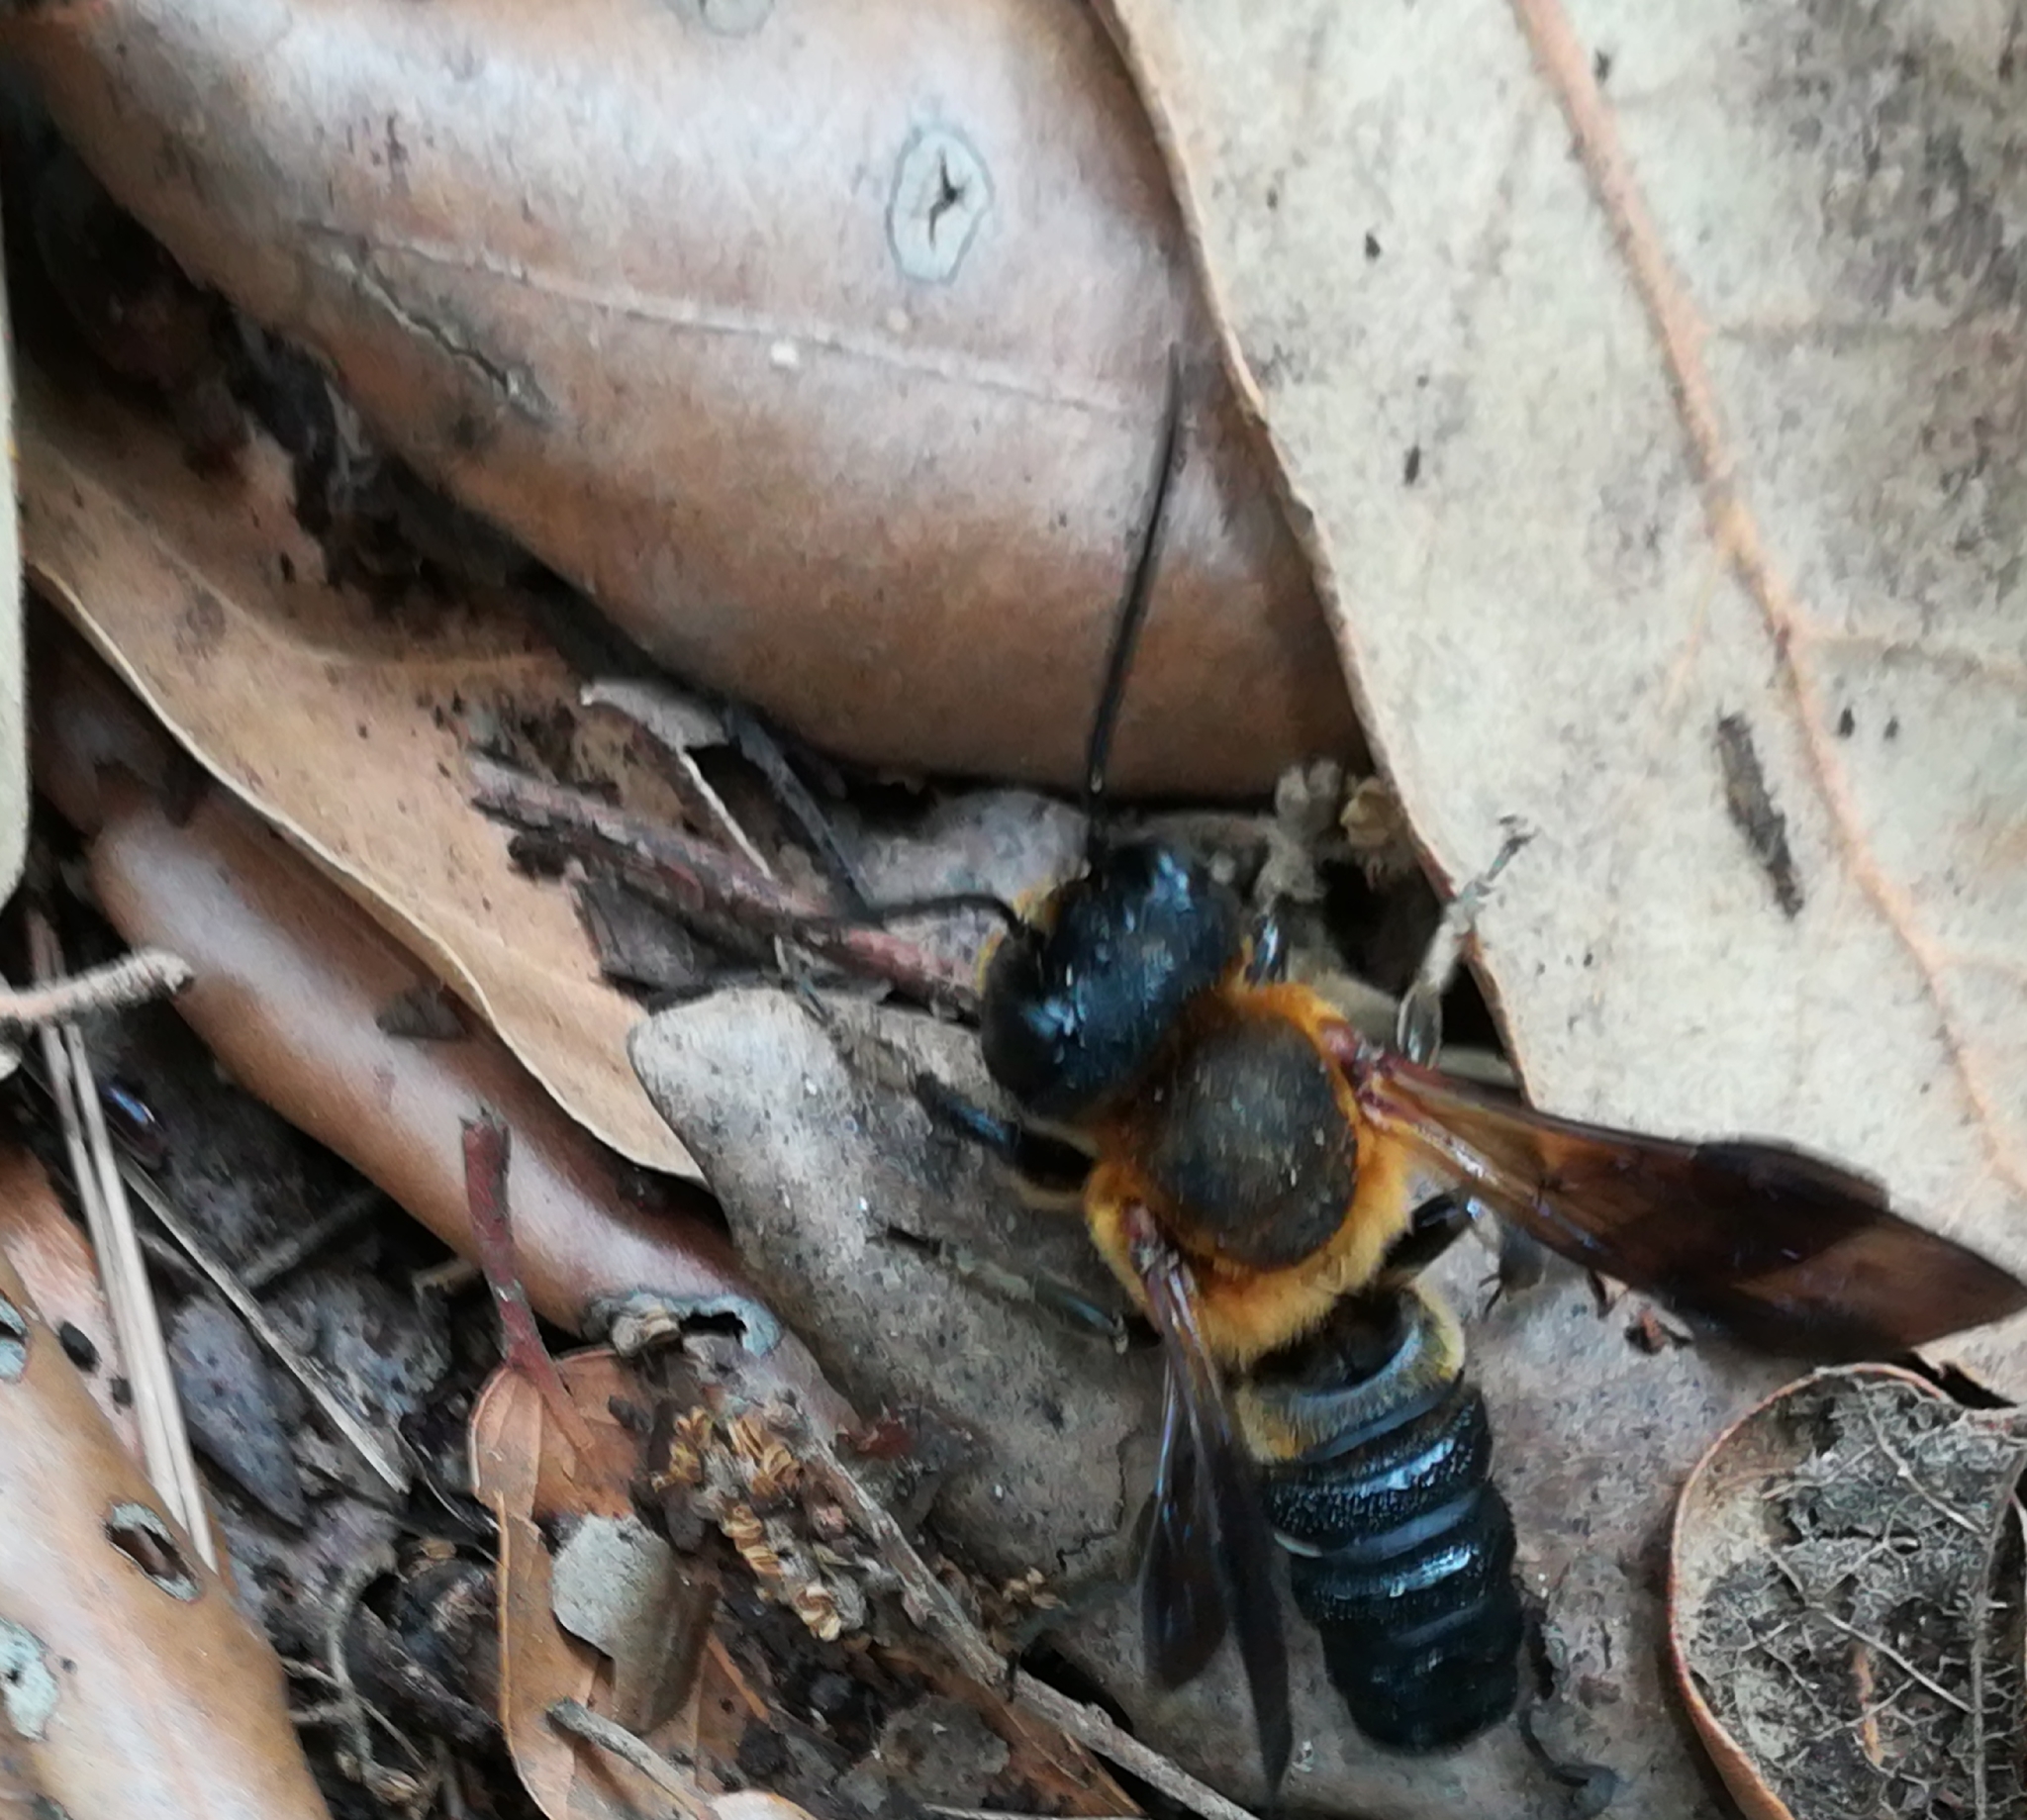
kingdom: Animalia
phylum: Arthropoda
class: Insecta
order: Hymenoptera
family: Megachilidae
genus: Megachile
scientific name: Megachile sculpturalis
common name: Sculptured resin bee
